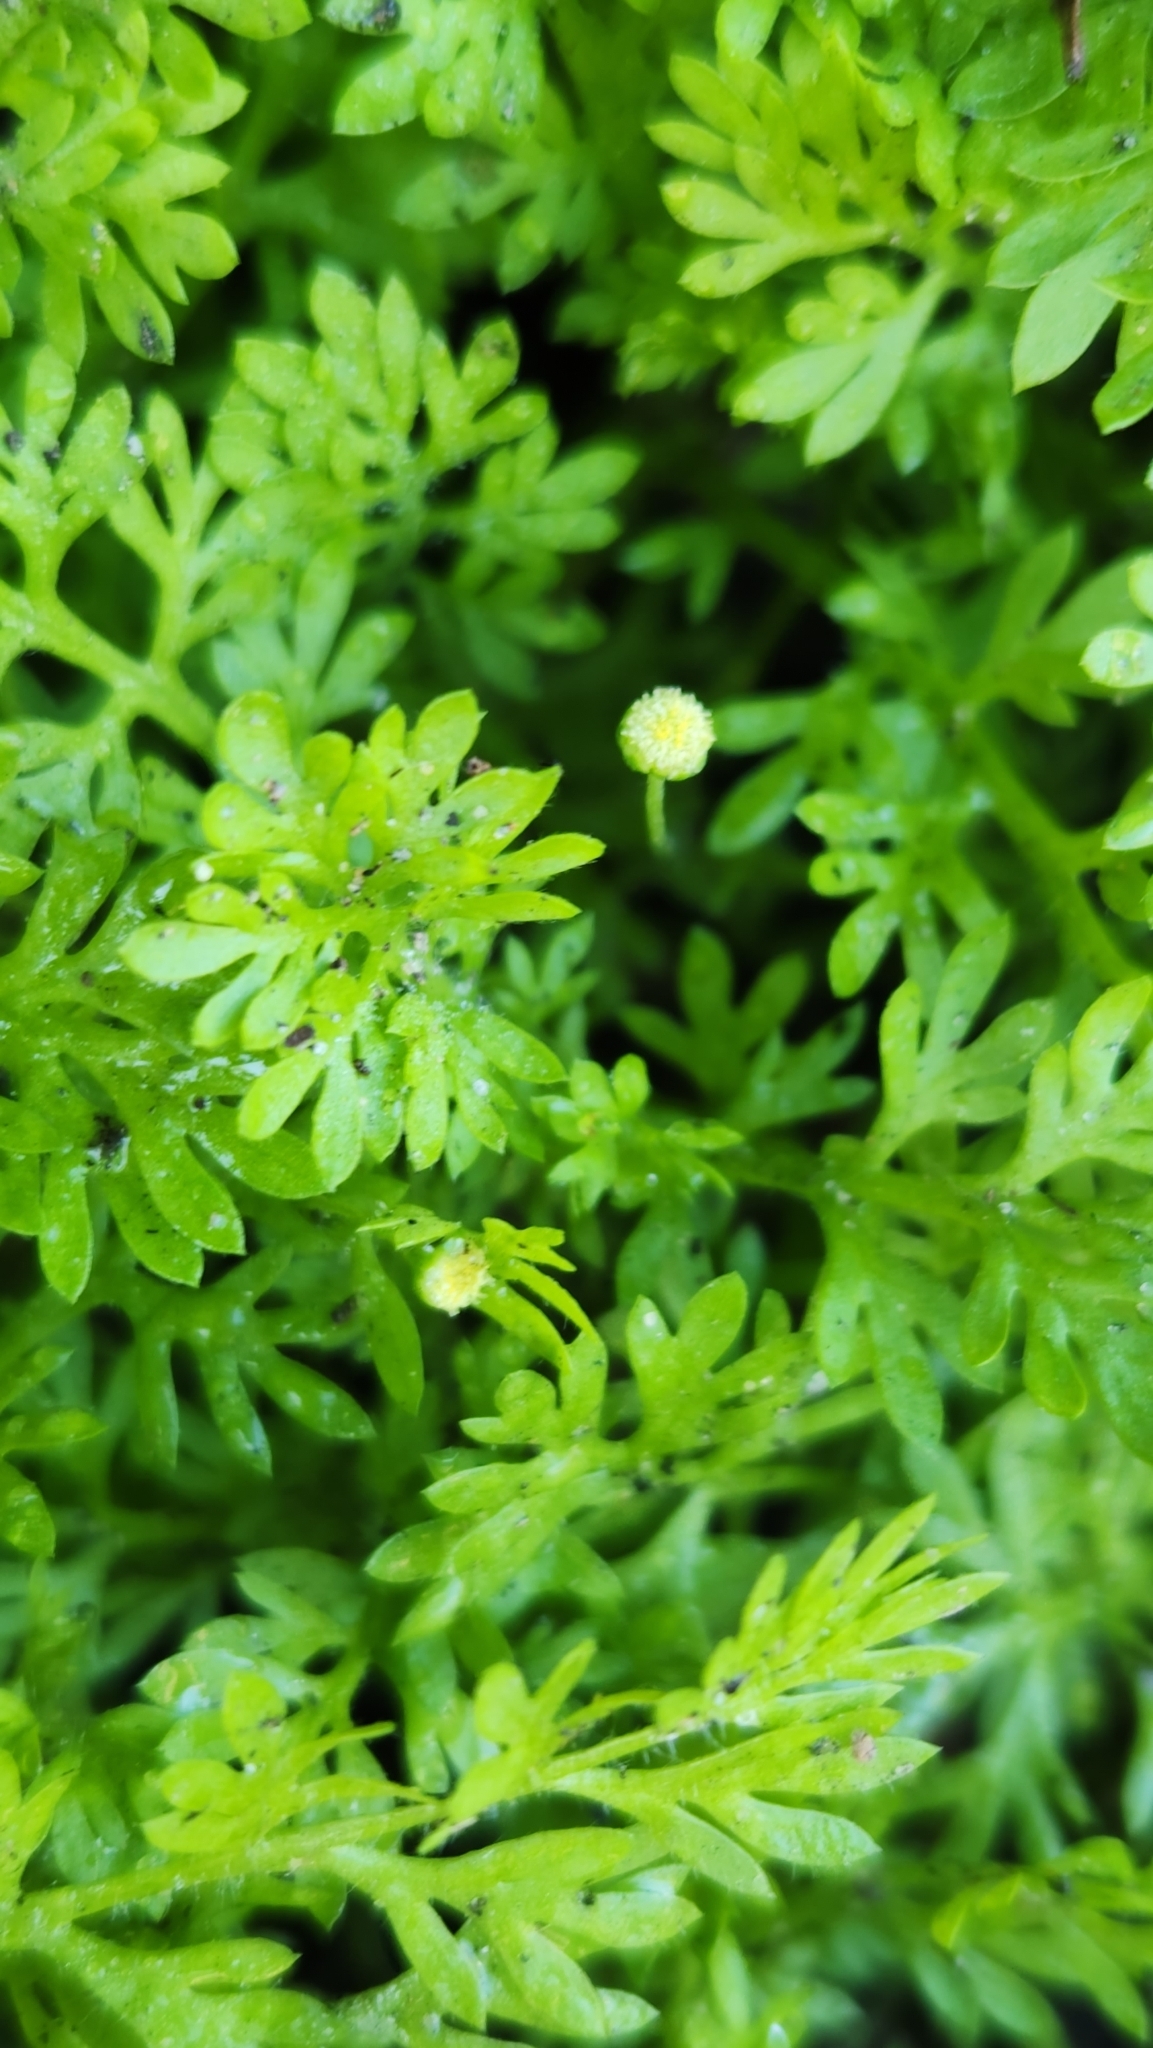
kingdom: Plantae
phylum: Tracheophyta
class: Magnoliopsida
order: Asterales
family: Asteraceae
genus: Cotula
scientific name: Cotula australis
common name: Australian waterbuttons
